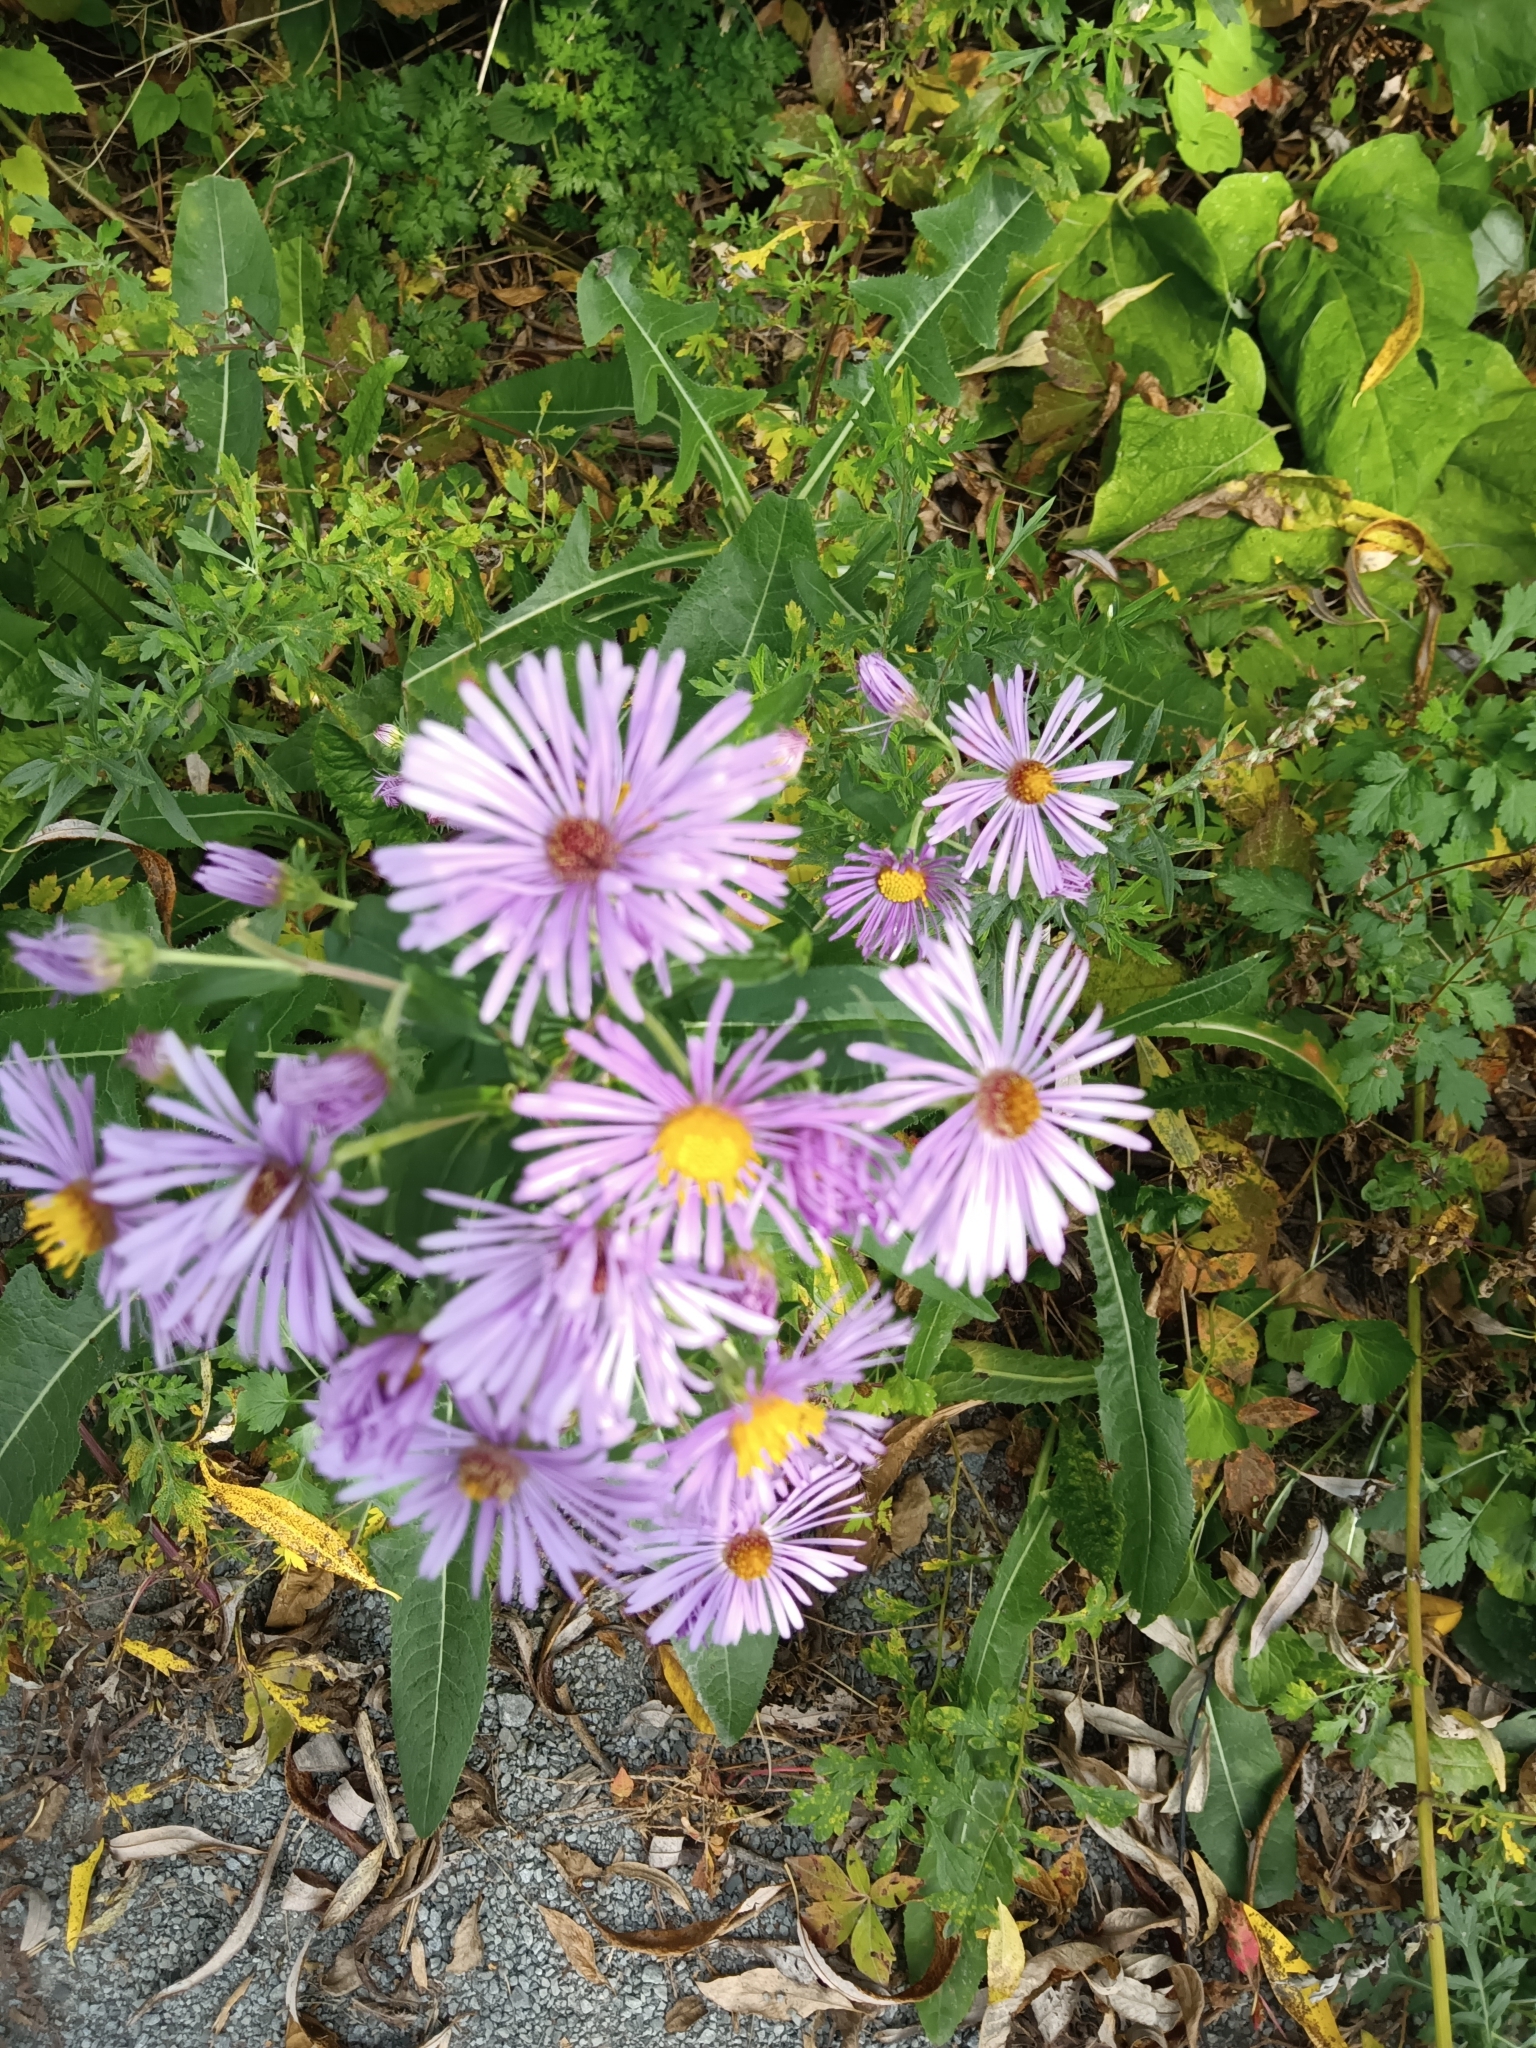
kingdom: Plantae
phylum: Tracheophyta
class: Magnoliopsida
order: Asterales
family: Asteraceae
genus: Symphyotrichum
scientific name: Symphyotrichum novae-angliae
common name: Michaelmas daisy
